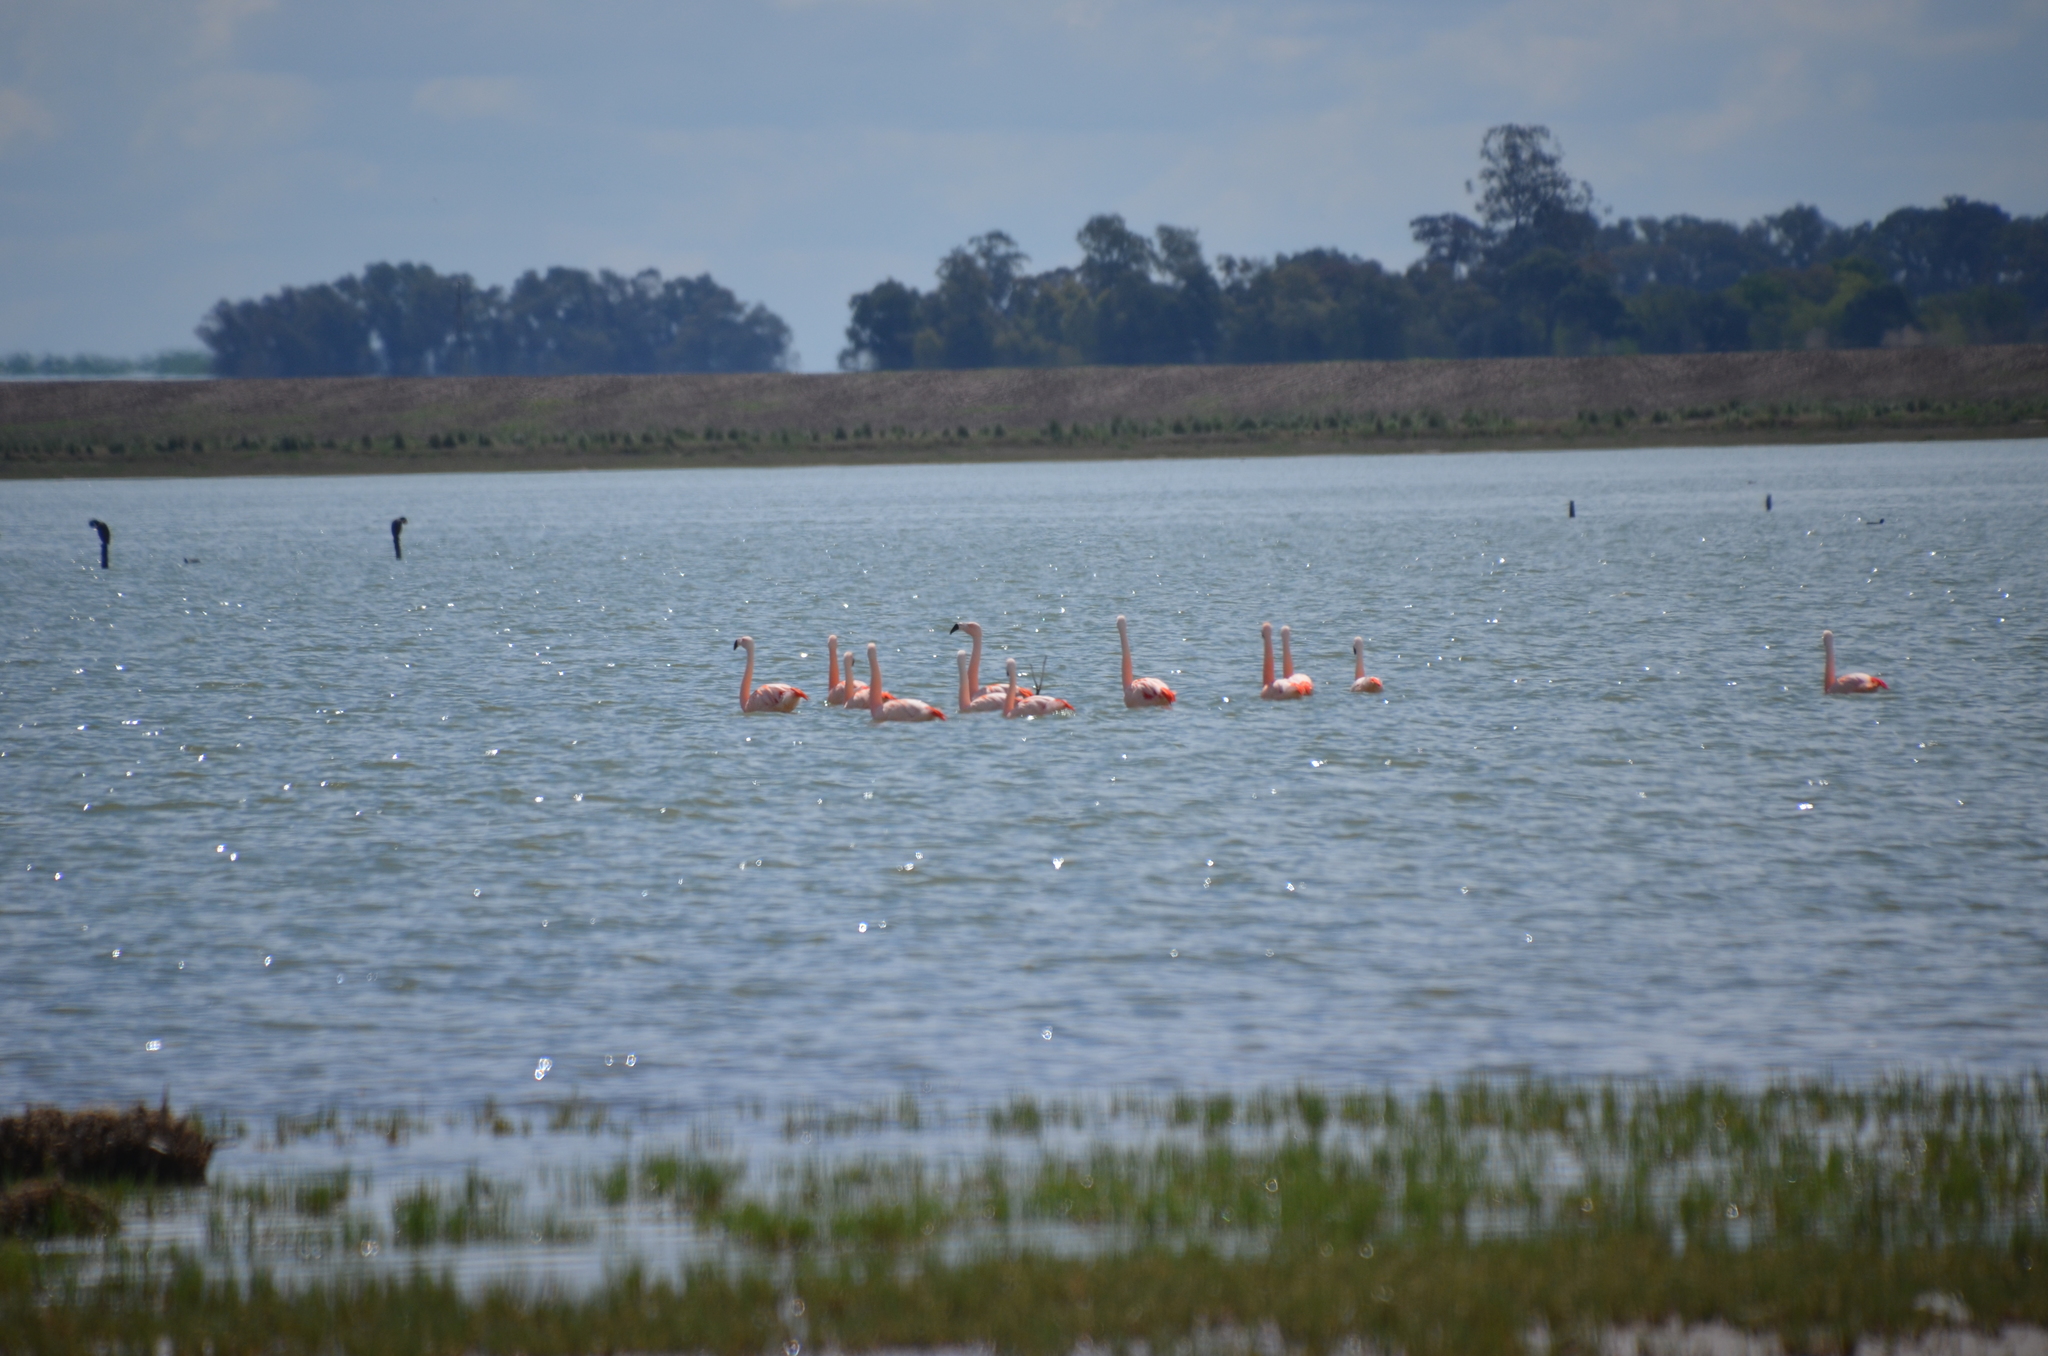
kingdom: Animalia
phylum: Chordata
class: Aves
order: Phoenicopteriformes
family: Phoenicopteridae
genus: Phoenicopterus
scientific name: Phoenicopterus chilensis
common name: Chilean flamingo
